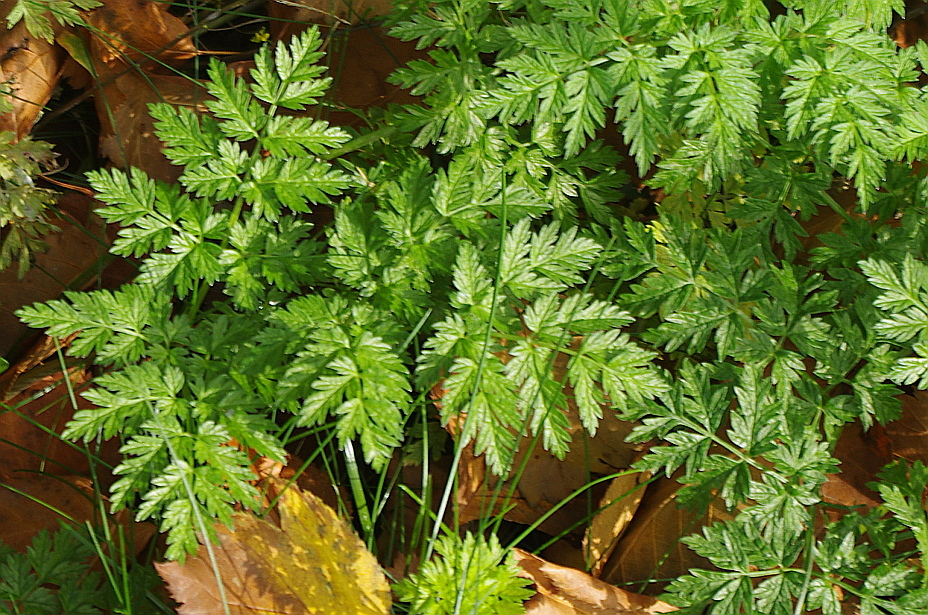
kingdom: Plantae
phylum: Tracheophyta
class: Magnoliopsida
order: Apiales
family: Apiaceae
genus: Anthriscus
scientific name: Anthriscus sylvestris
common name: Cow parsley
